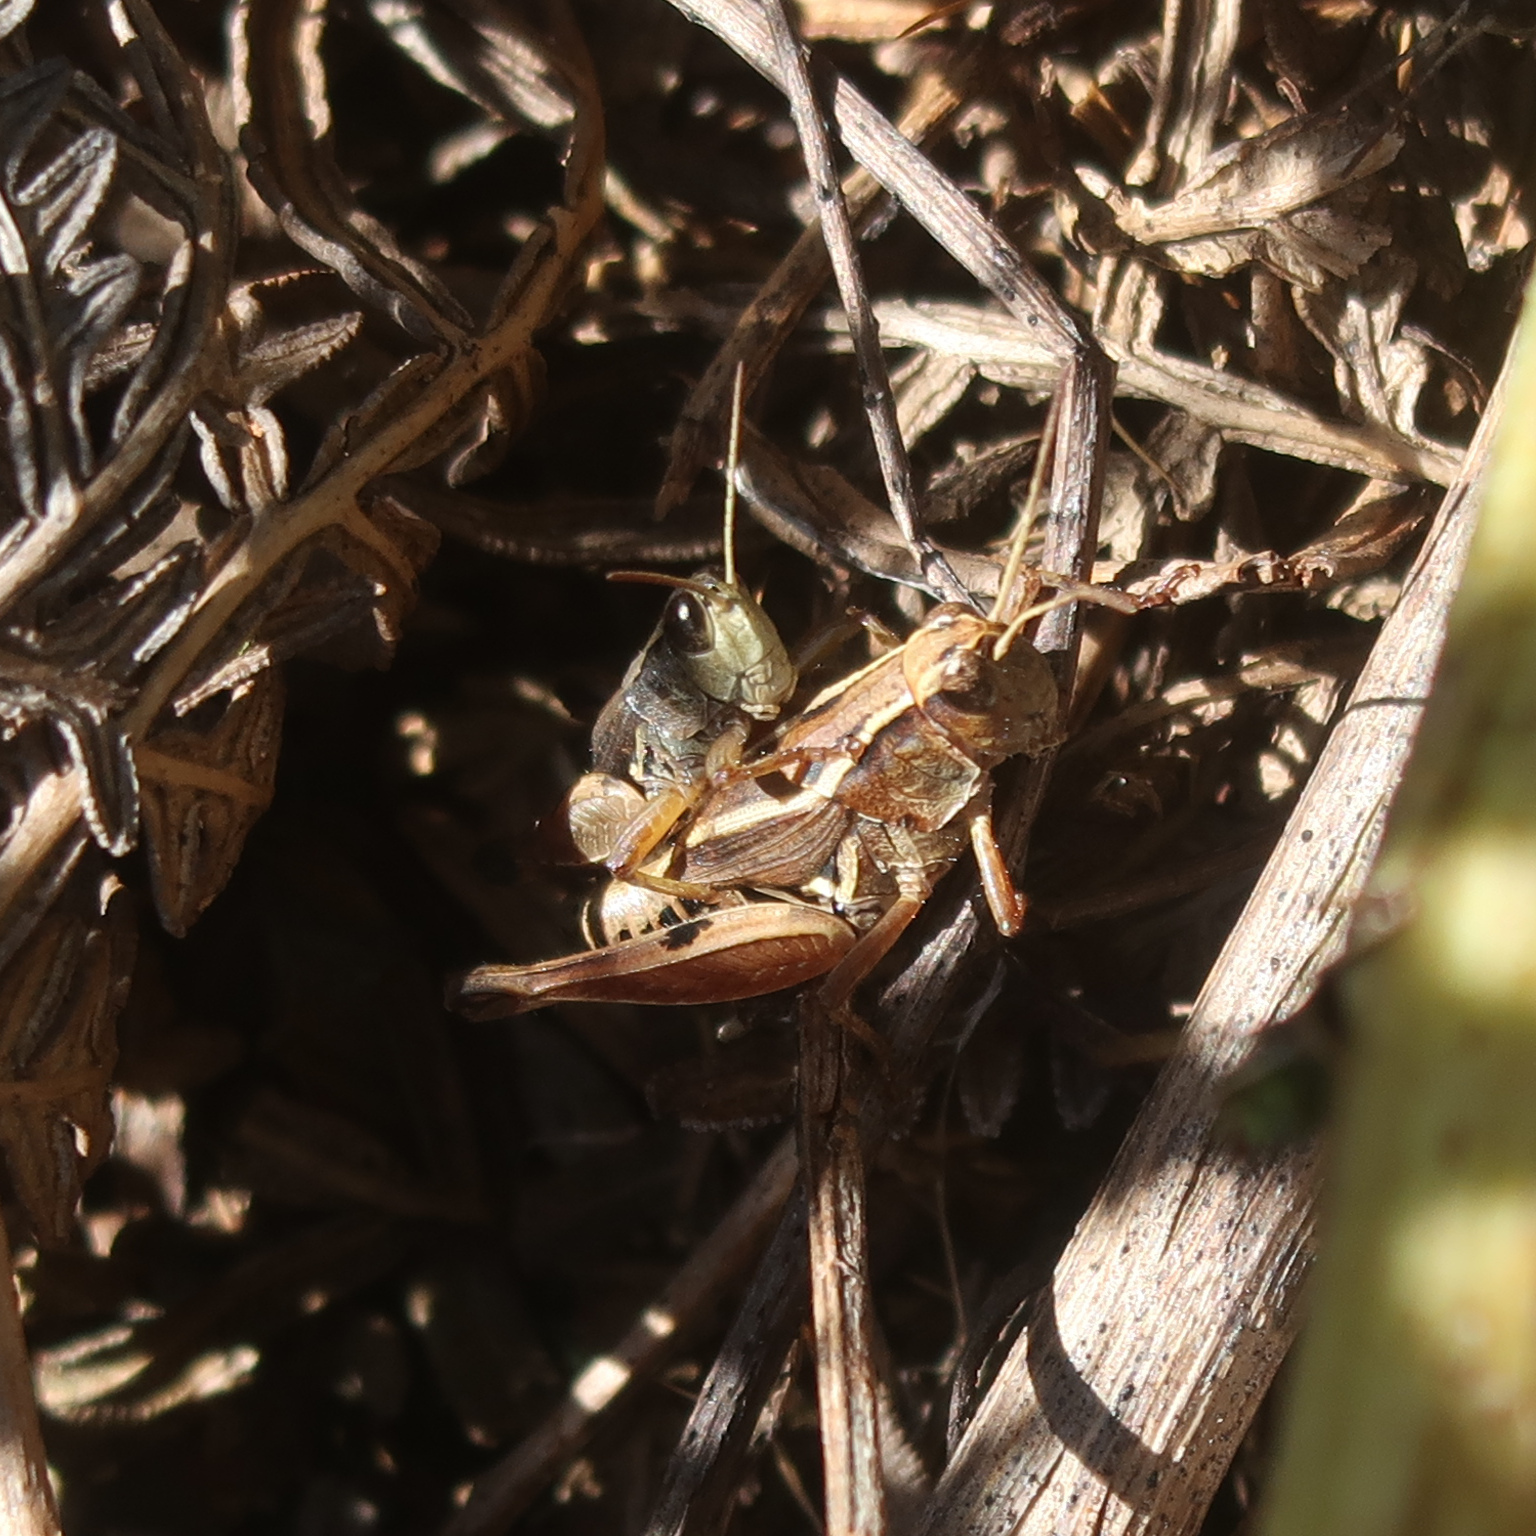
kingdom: Animalia
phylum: Arthropoda
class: Insecta
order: Orthoptera
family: Acrididae
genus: Phaulacridium
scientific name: Phaulacridium vittatum
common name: Wingless grasshopper
